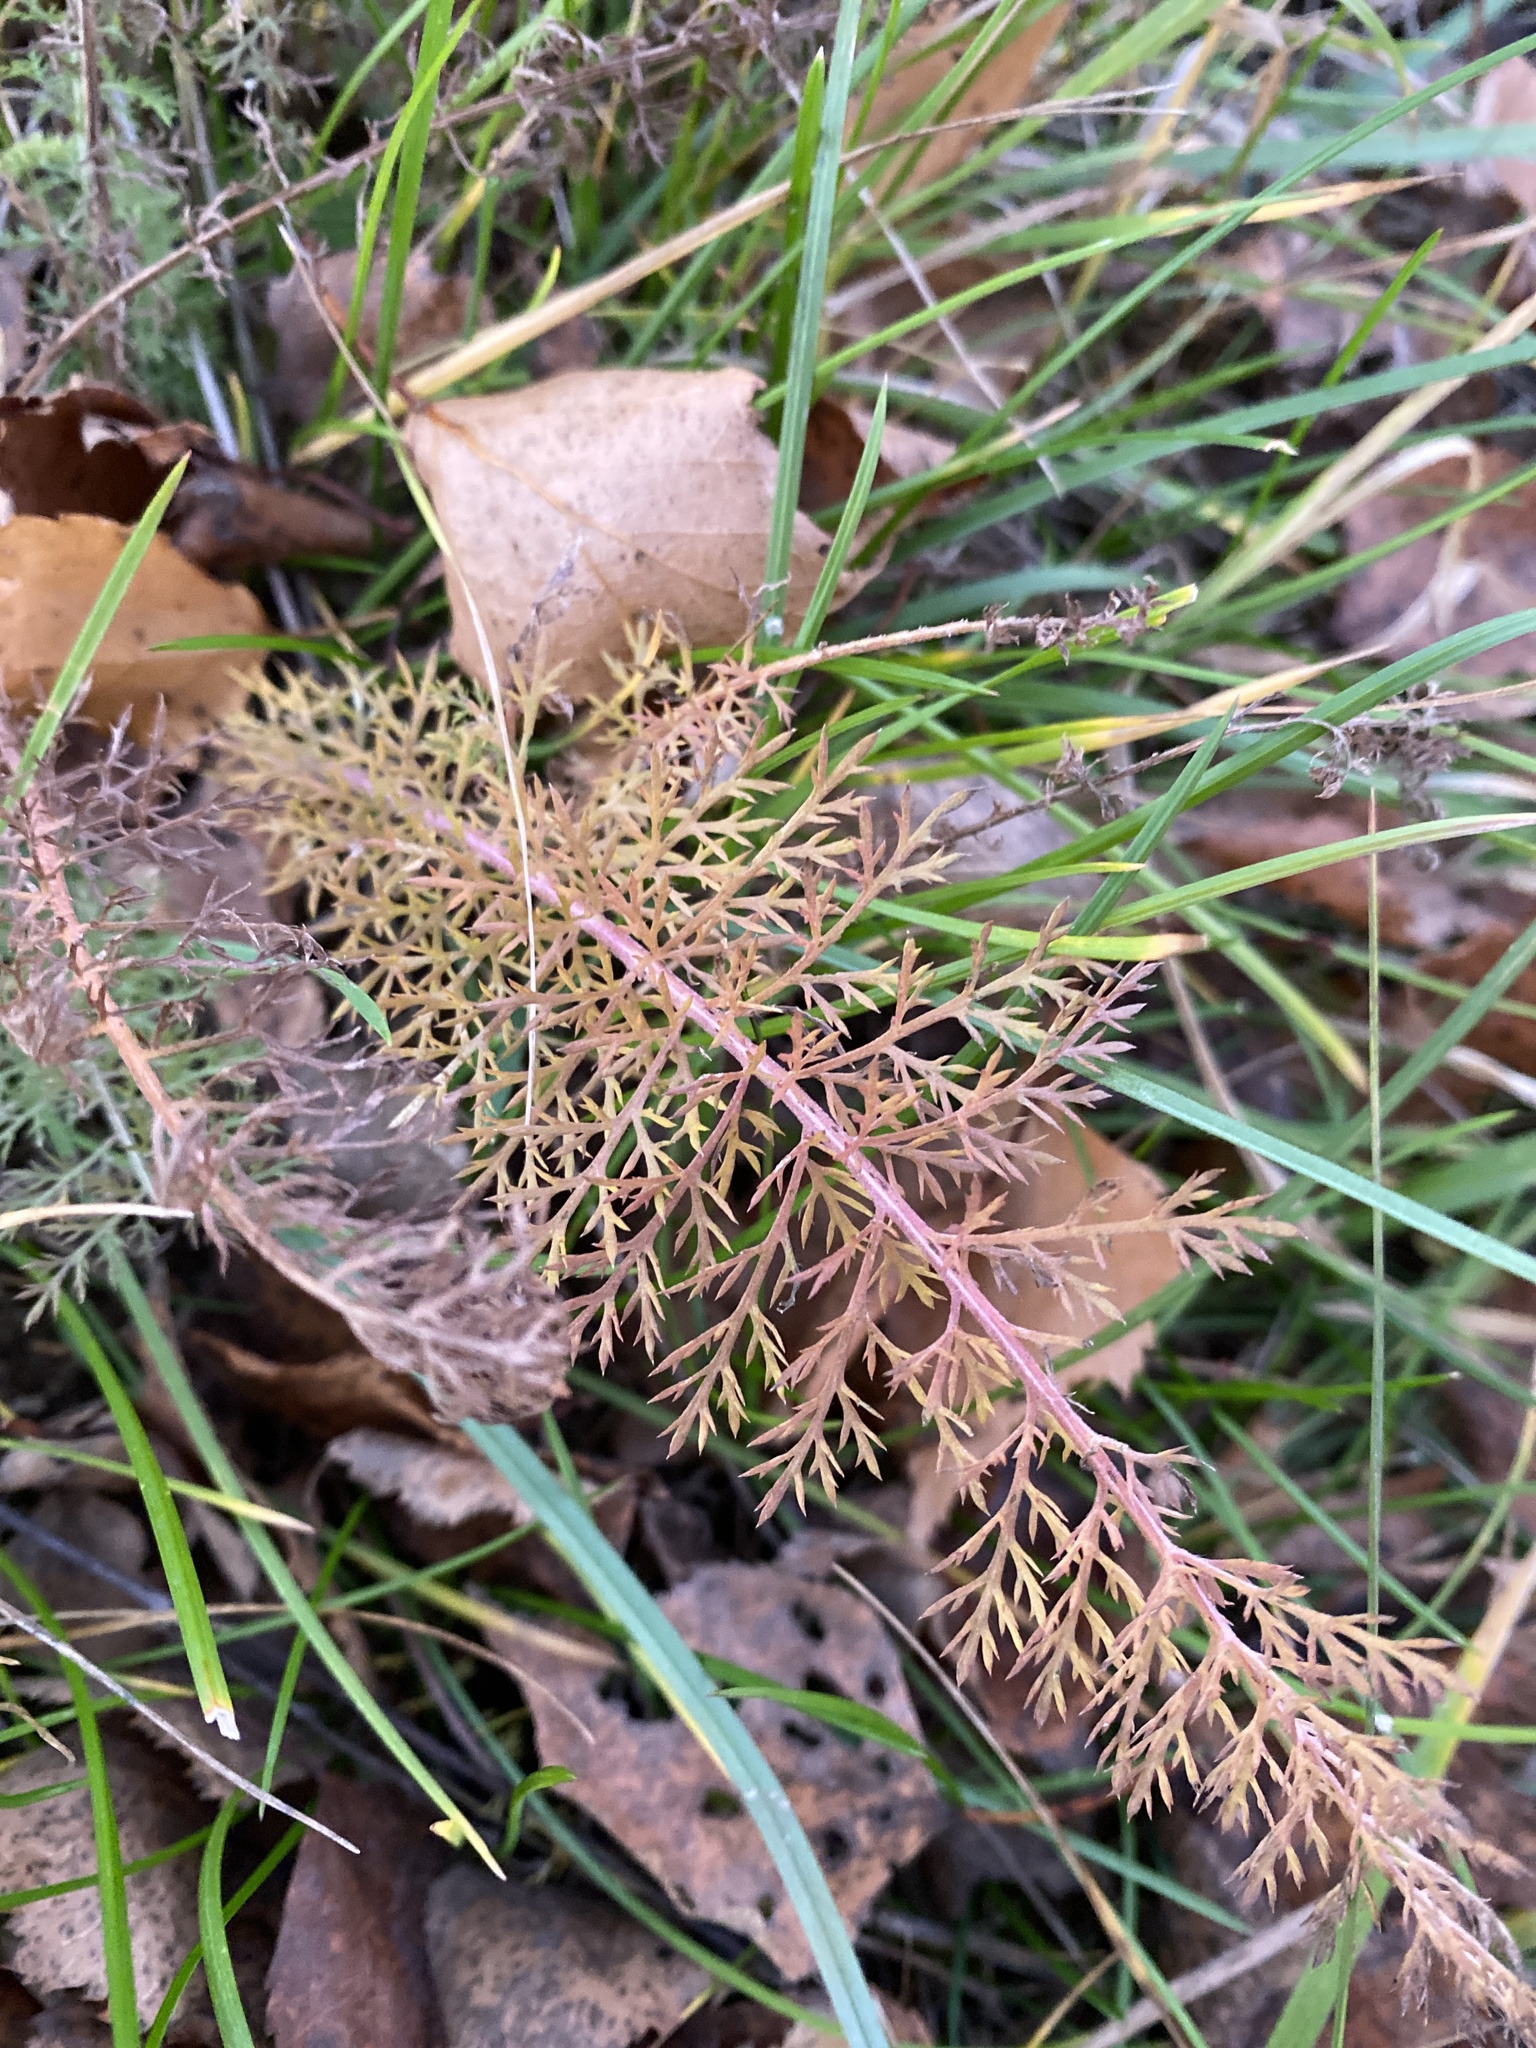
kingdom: Plantae
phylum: Tracheophyta
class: Magnoliopsida
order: Asterales
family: Asteraceae
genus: Achillea
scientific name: Achillea millefolium
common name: Yarrow
